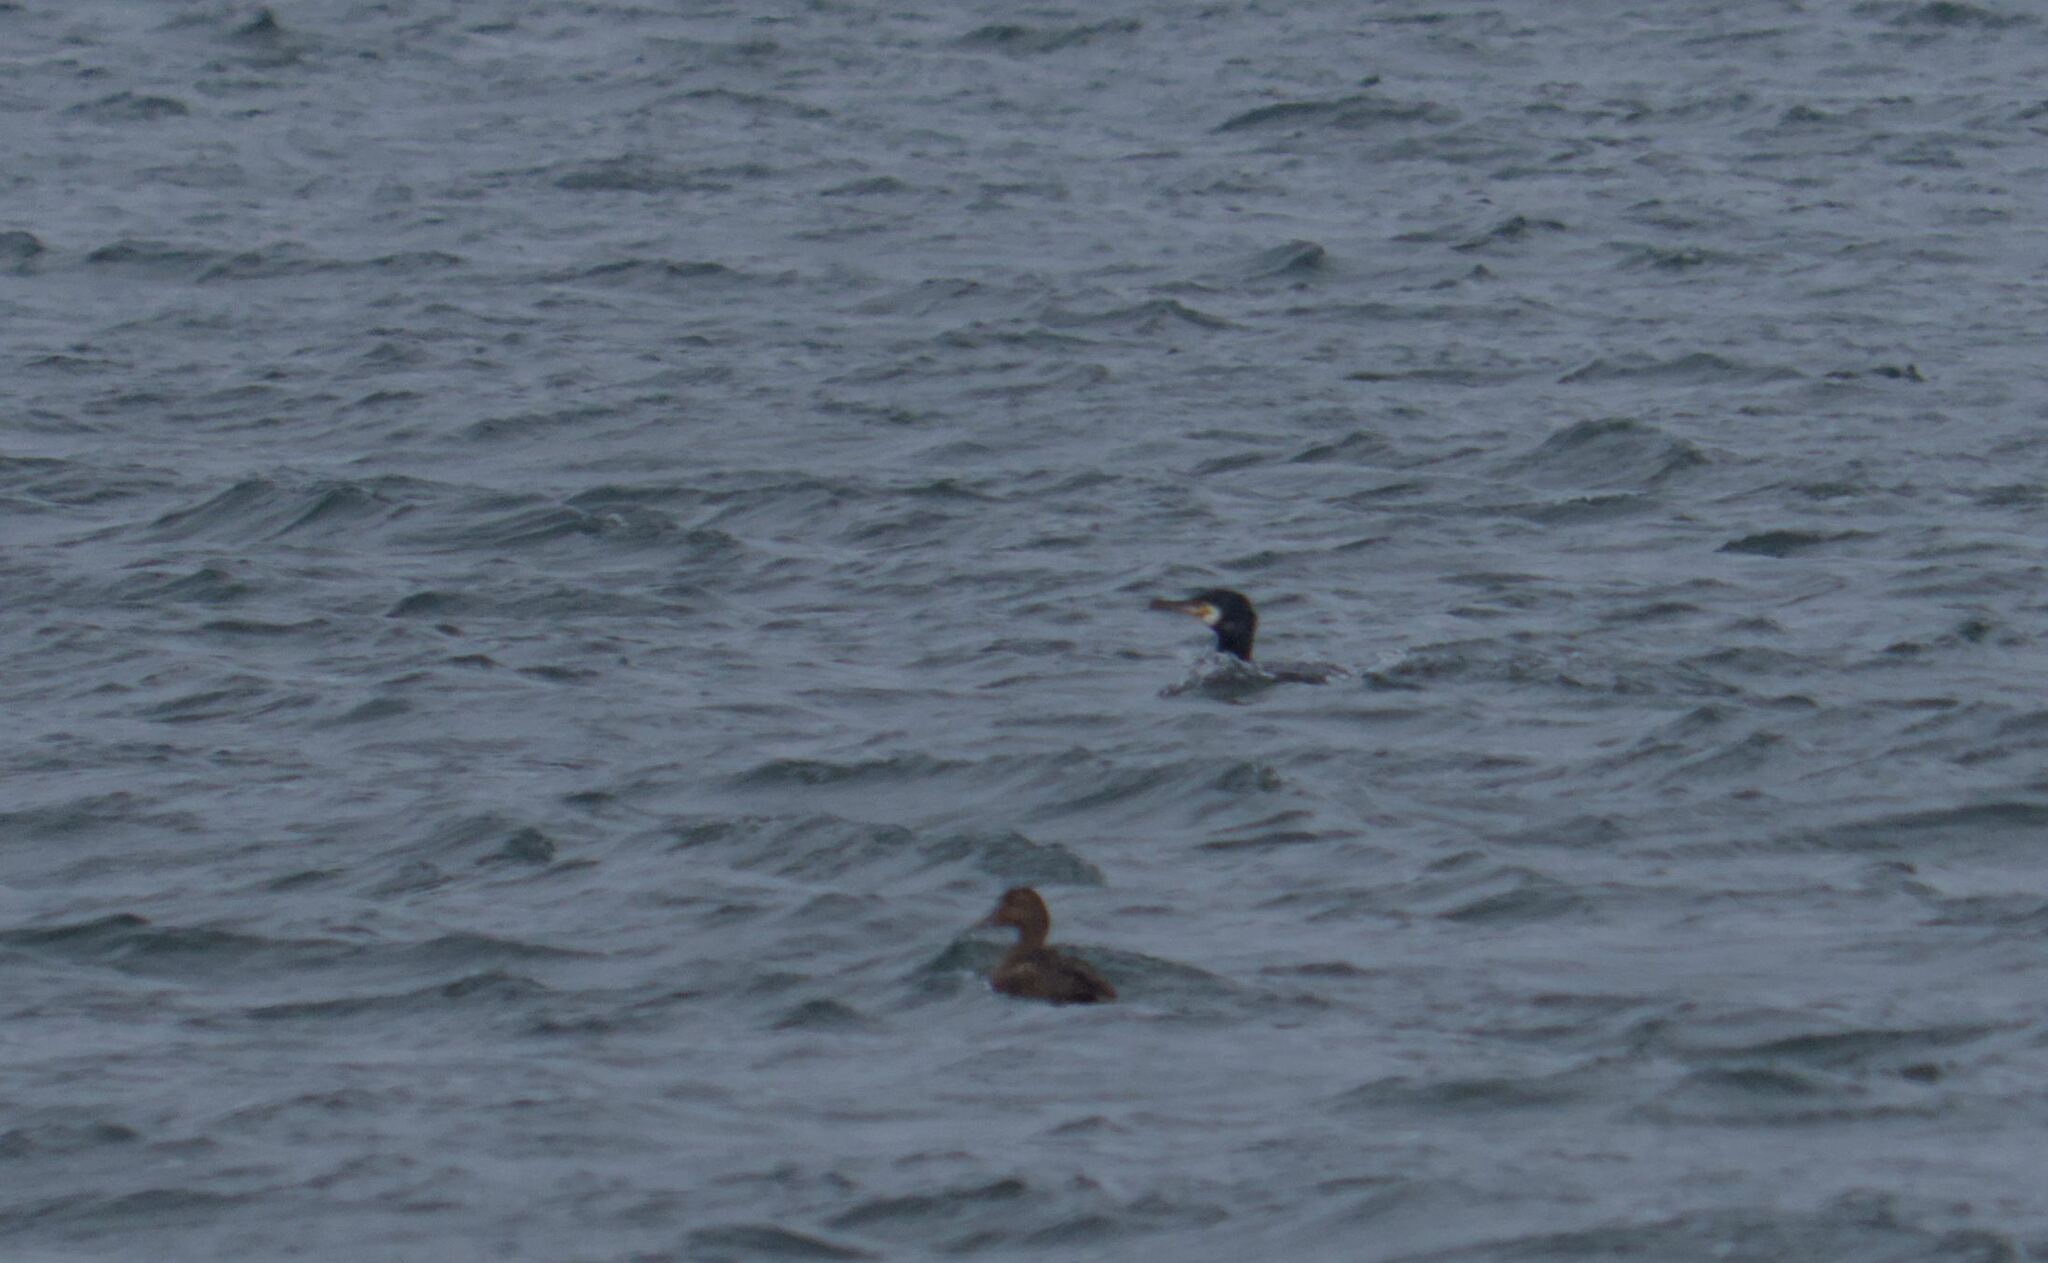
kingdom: Animalia
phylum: Chordata
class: Aves
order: Suliformes
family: Phalacrocoracidae
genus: Phalacrocorax
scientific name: Phalacrocorax carbo
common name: Great cormorant
